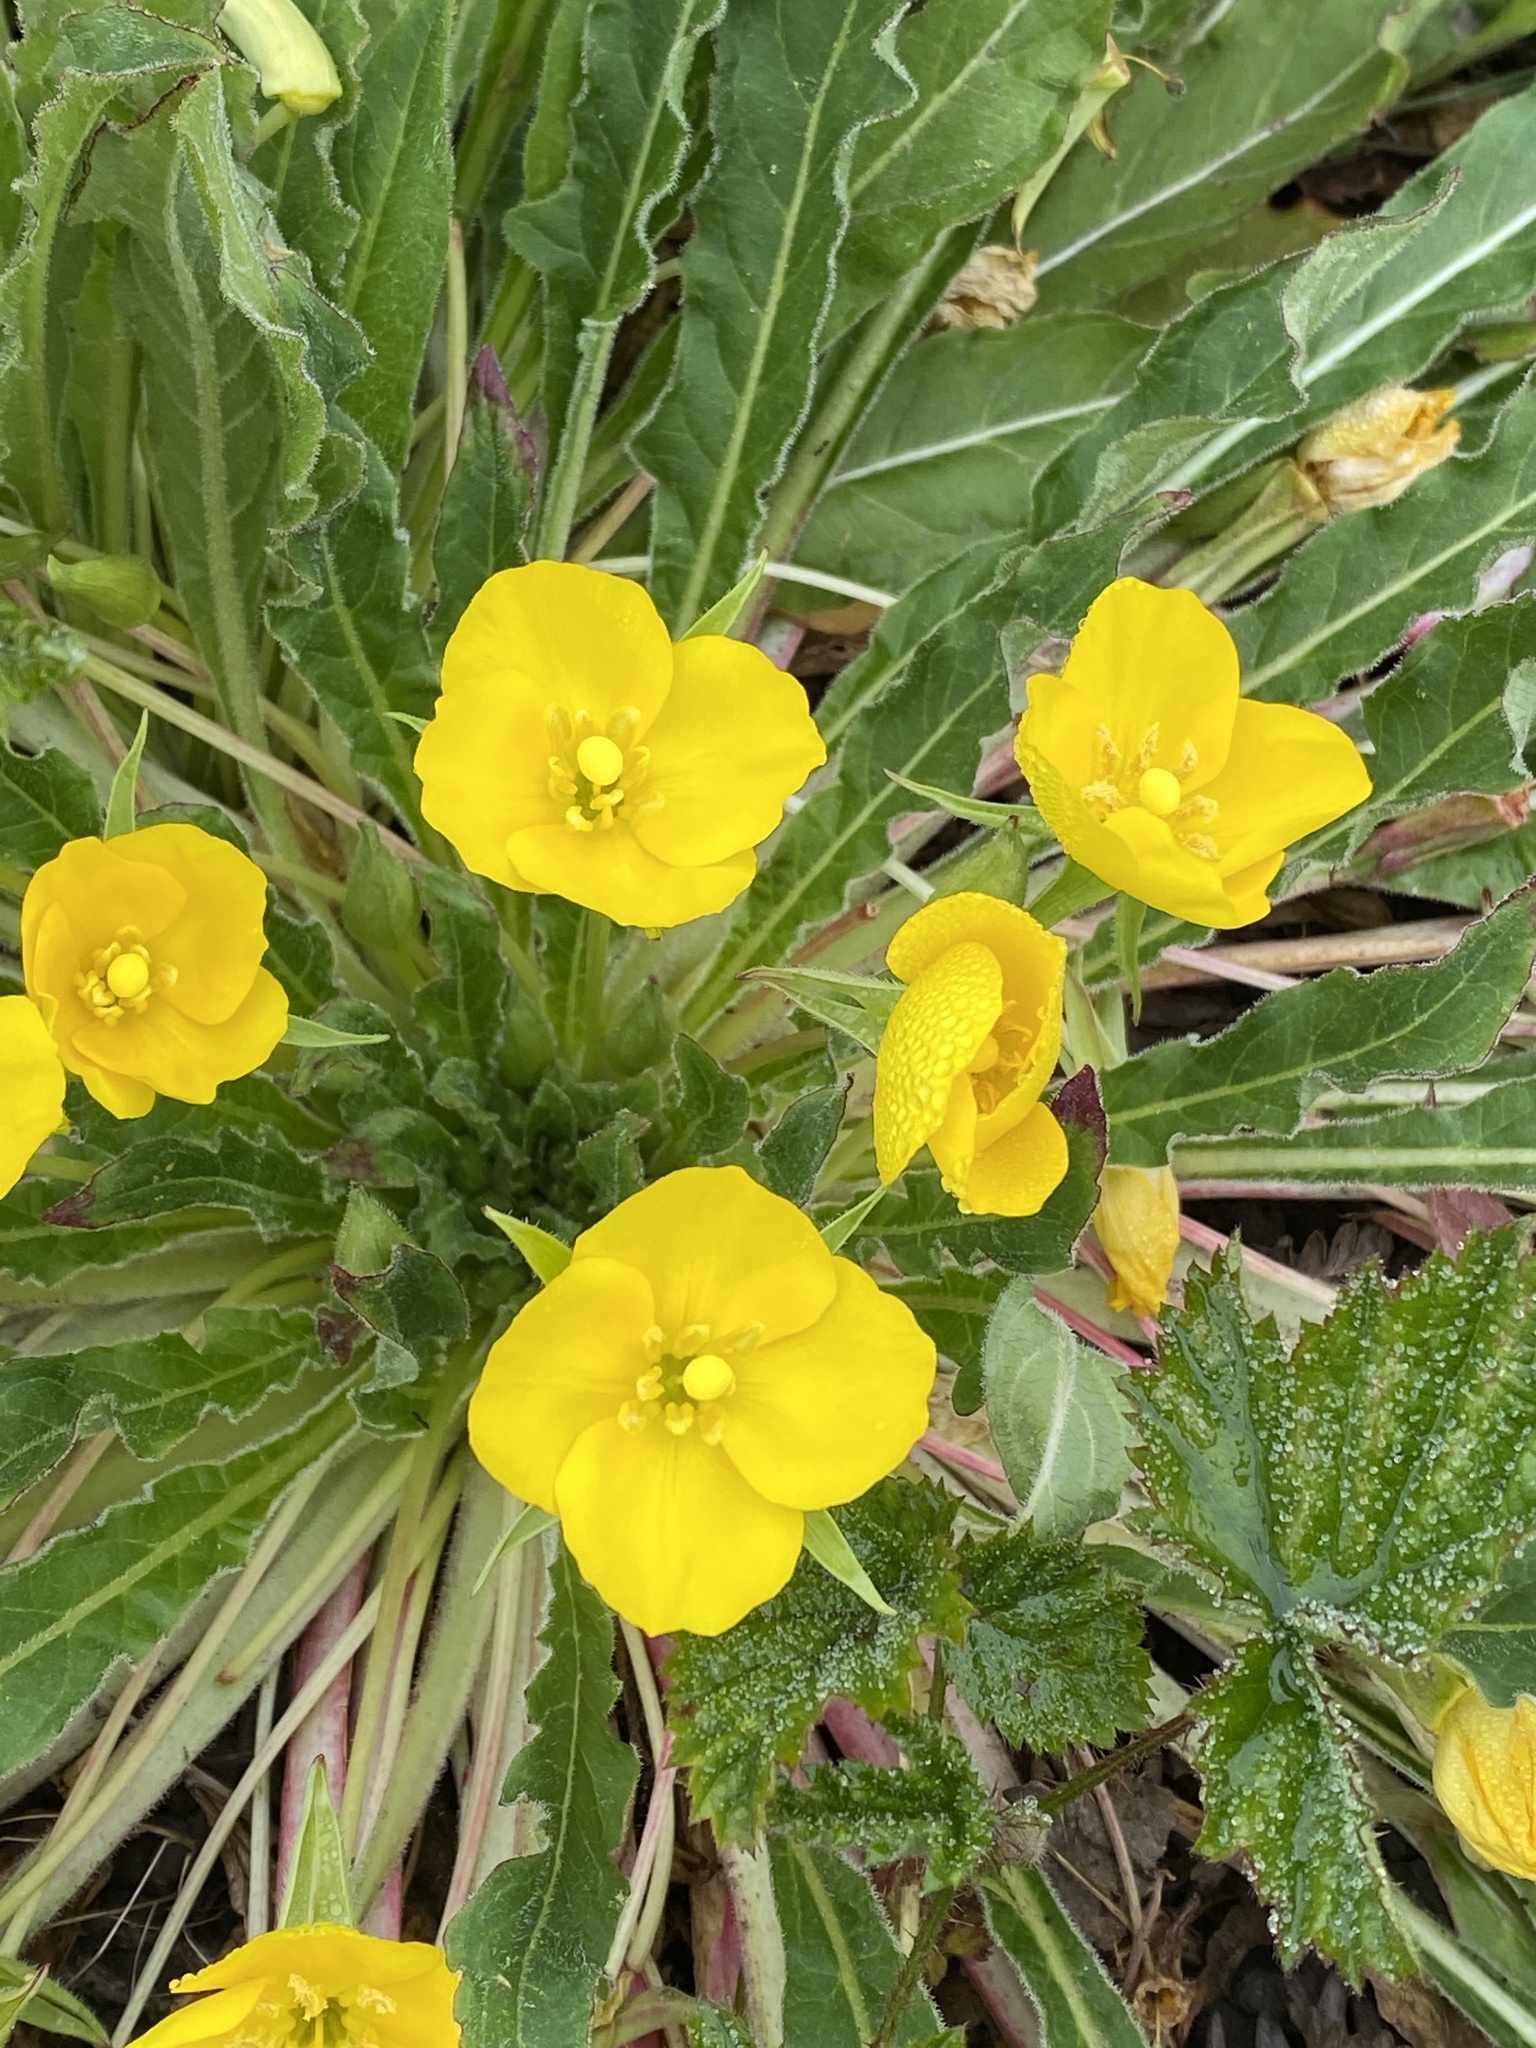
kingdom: Plantae
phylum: Tracheophyta
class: Magnoliopsida
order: Myrtales
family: Onagraceae
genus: Taraxia
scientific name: Taraxia ovata
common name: Goldeneggs
